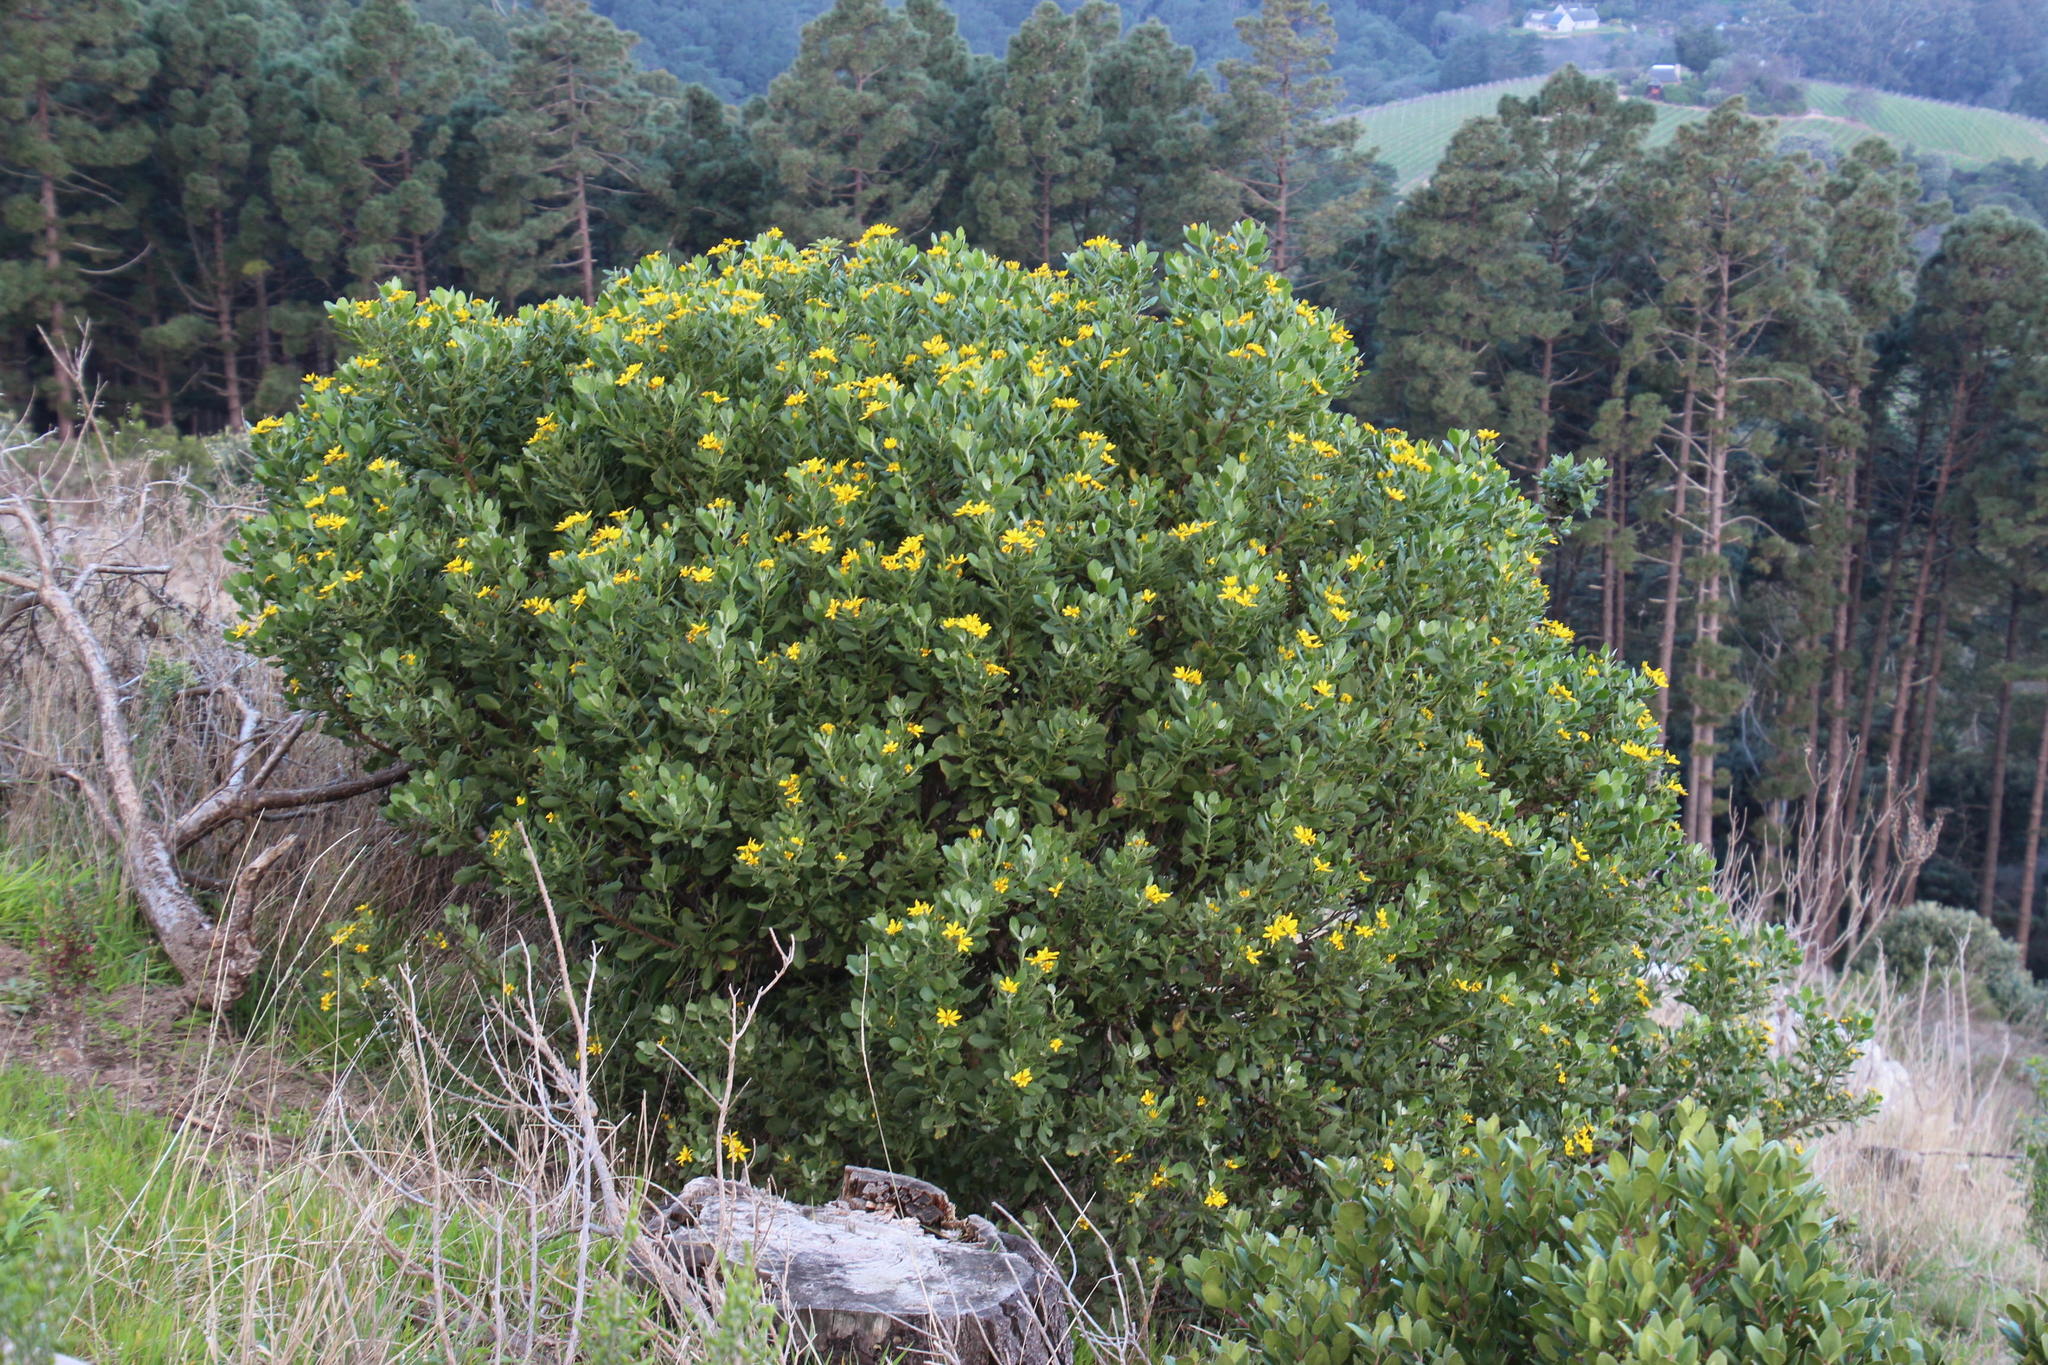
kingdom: Plantae
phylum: Tracheophyta
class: Magnoliopsida
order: Asterales
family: Asteraceae
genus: Osteospermum
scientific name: Osteospermum moniliferum
